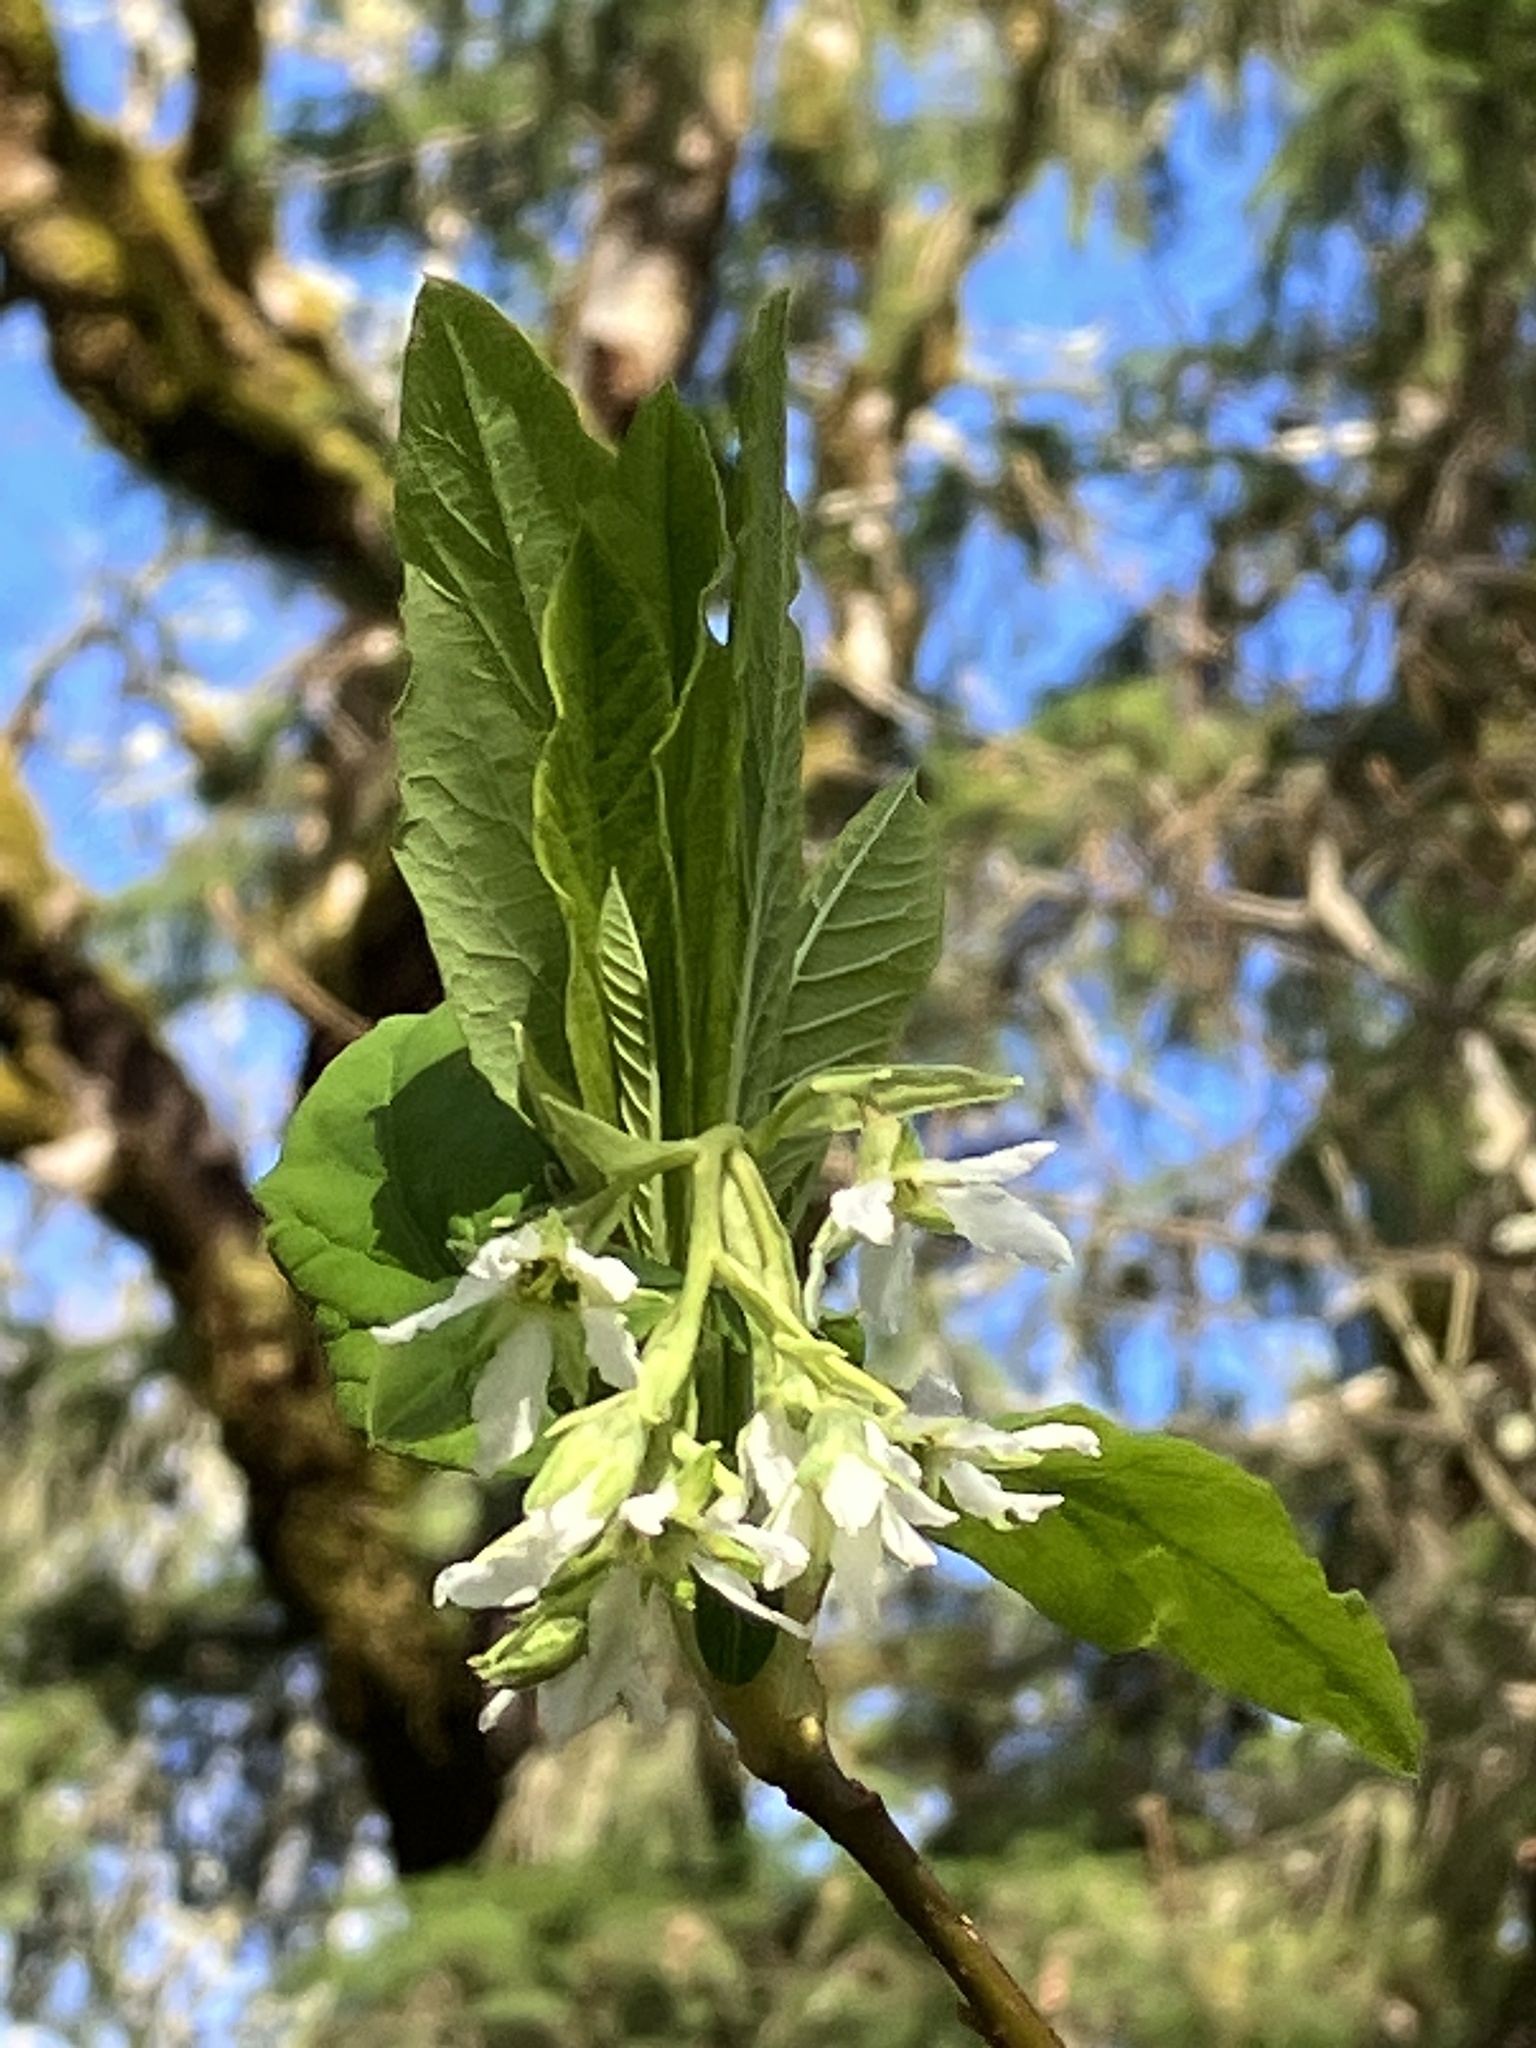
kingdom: Plantae
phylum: Tracheophyta
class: Magnoliopsida
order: Rosales
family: Rosaceae
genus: Oemleria
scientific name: Oemleria cerasiformis
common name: Osoberry
